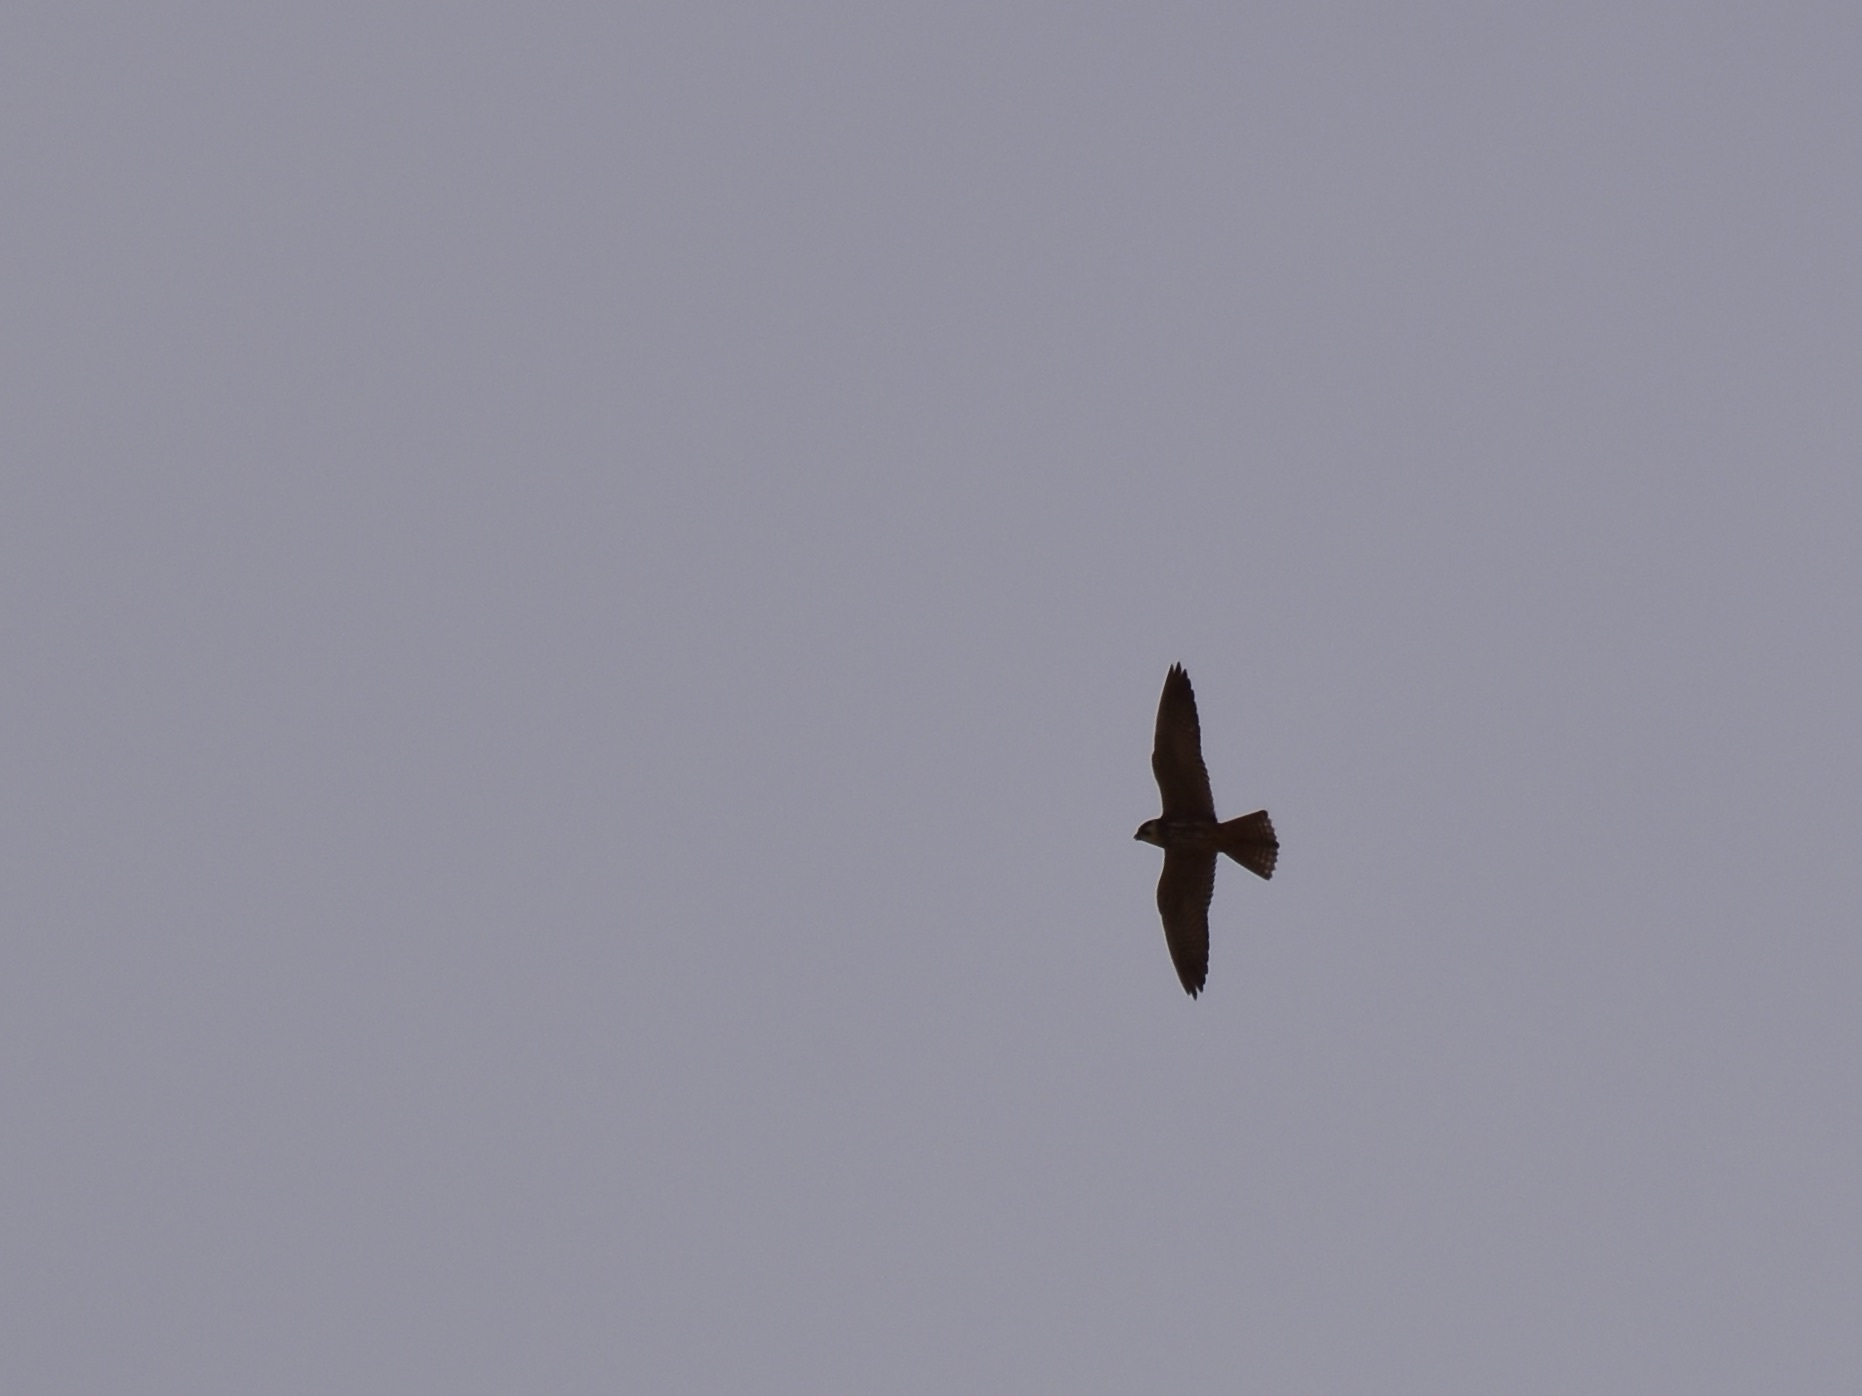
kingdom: Animalia
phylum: Chordata
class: Aves
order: Falconiformes
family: Falconidae
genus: Falco
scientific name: Falco peregrinus
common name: Peregrine falcon
